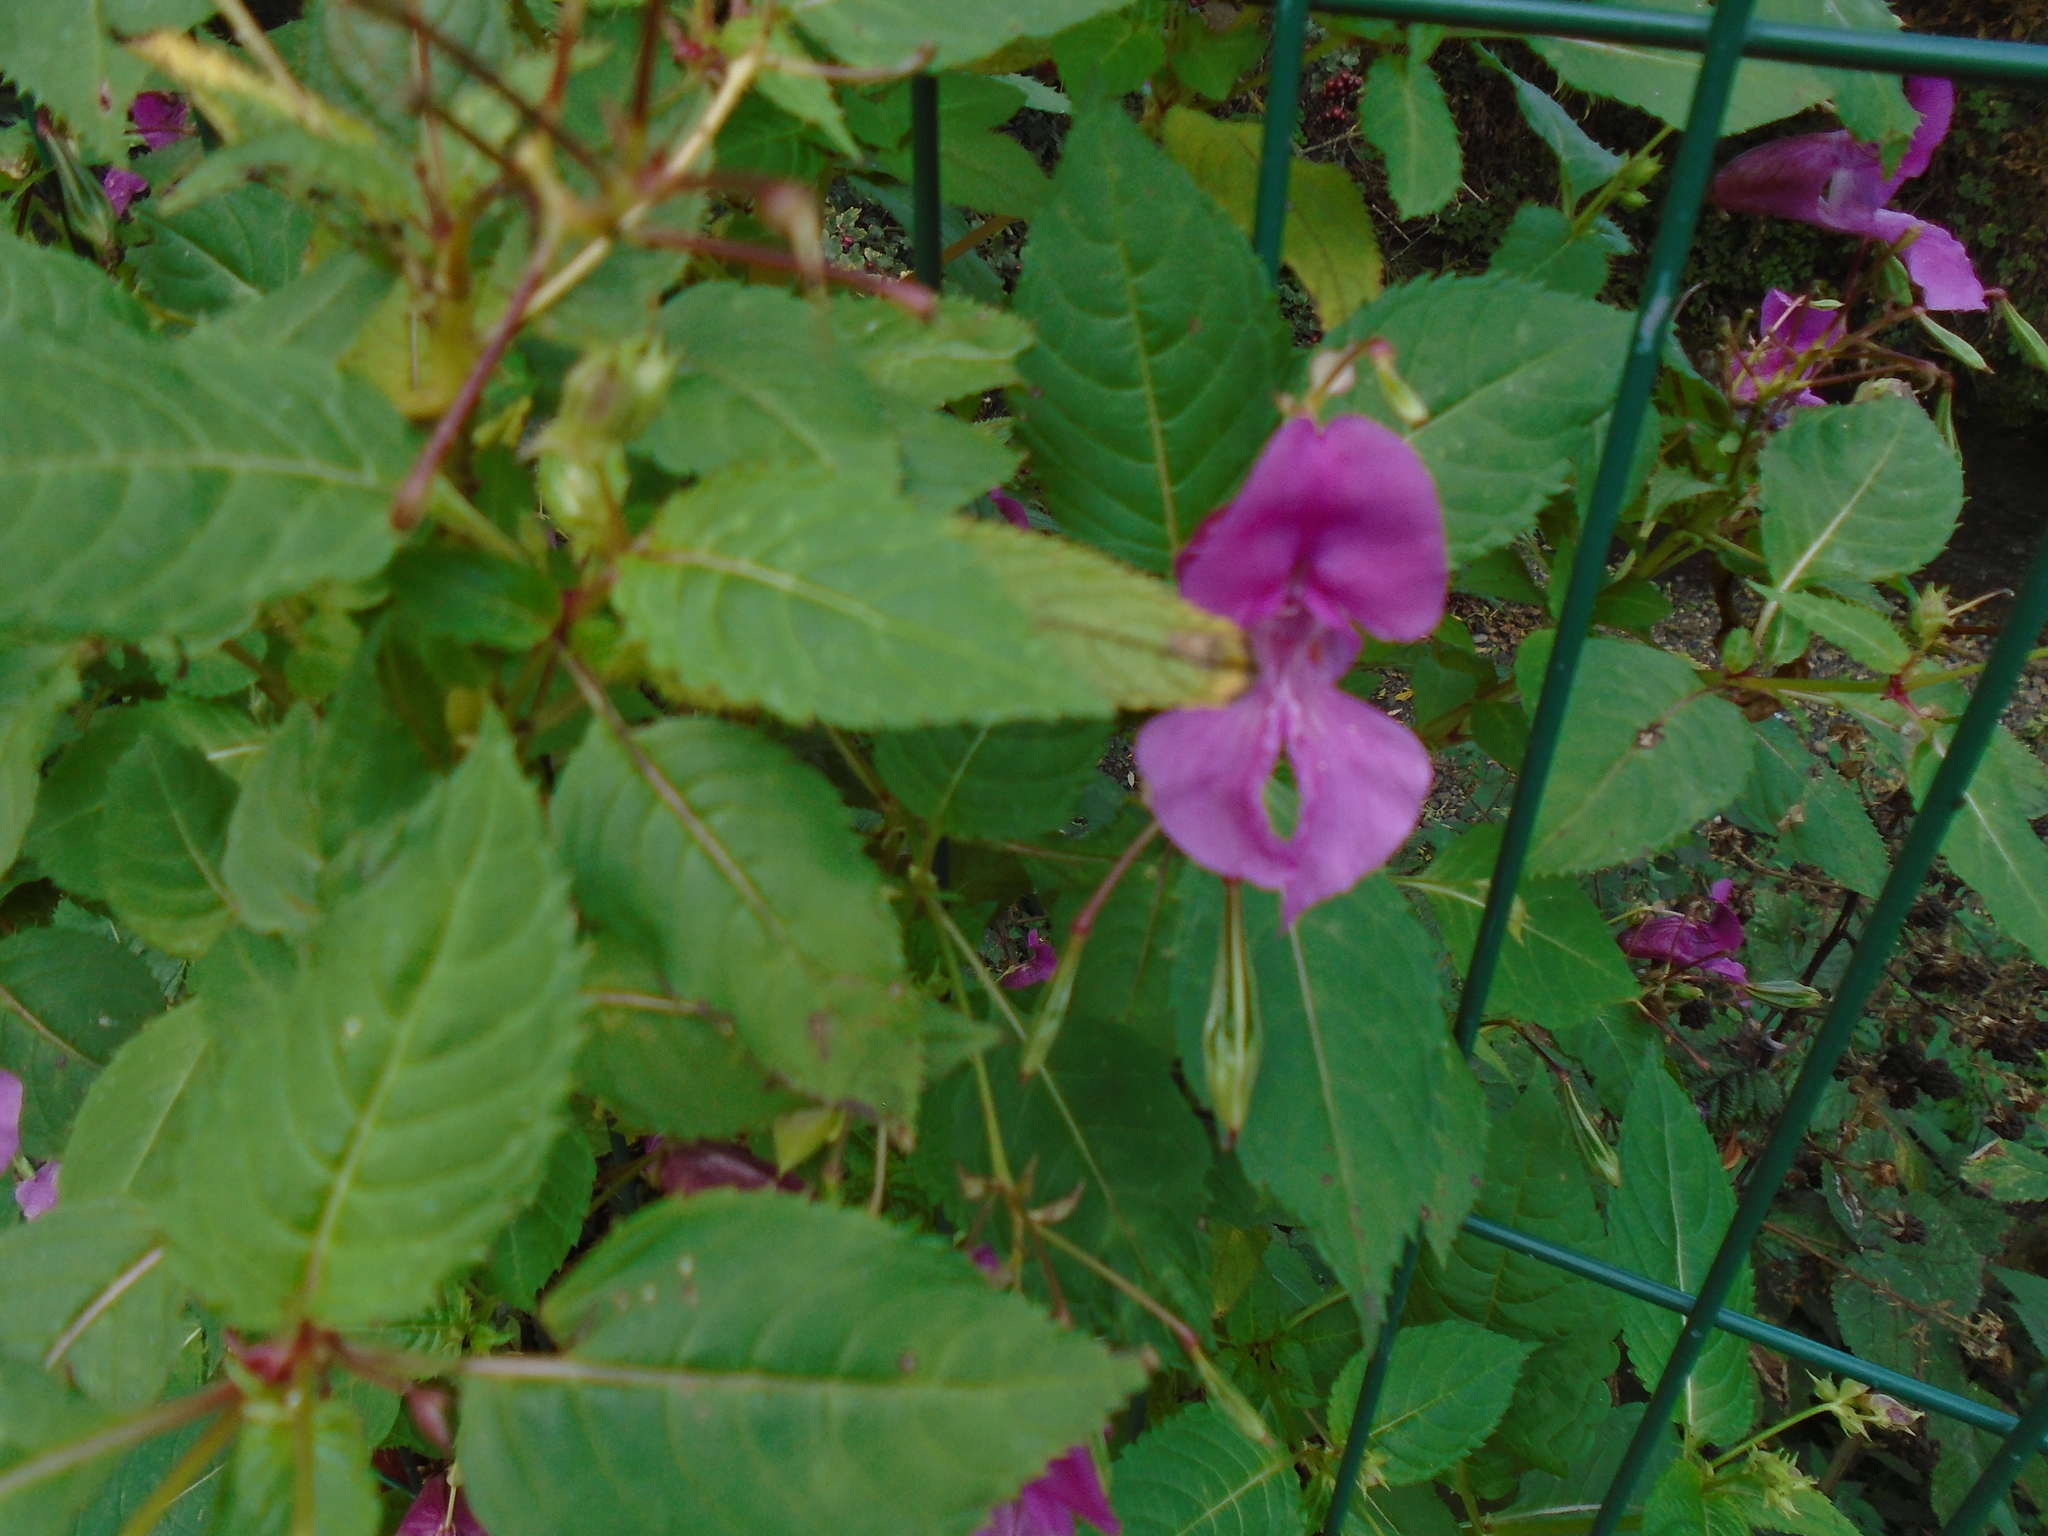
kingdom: Plantae
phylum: Tracheophyta
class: Magnoliopsida
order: Ericales
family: Balsaminaceae
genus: Impatiens
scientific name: Impatiens glandulifera
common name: Himalayan balsam
